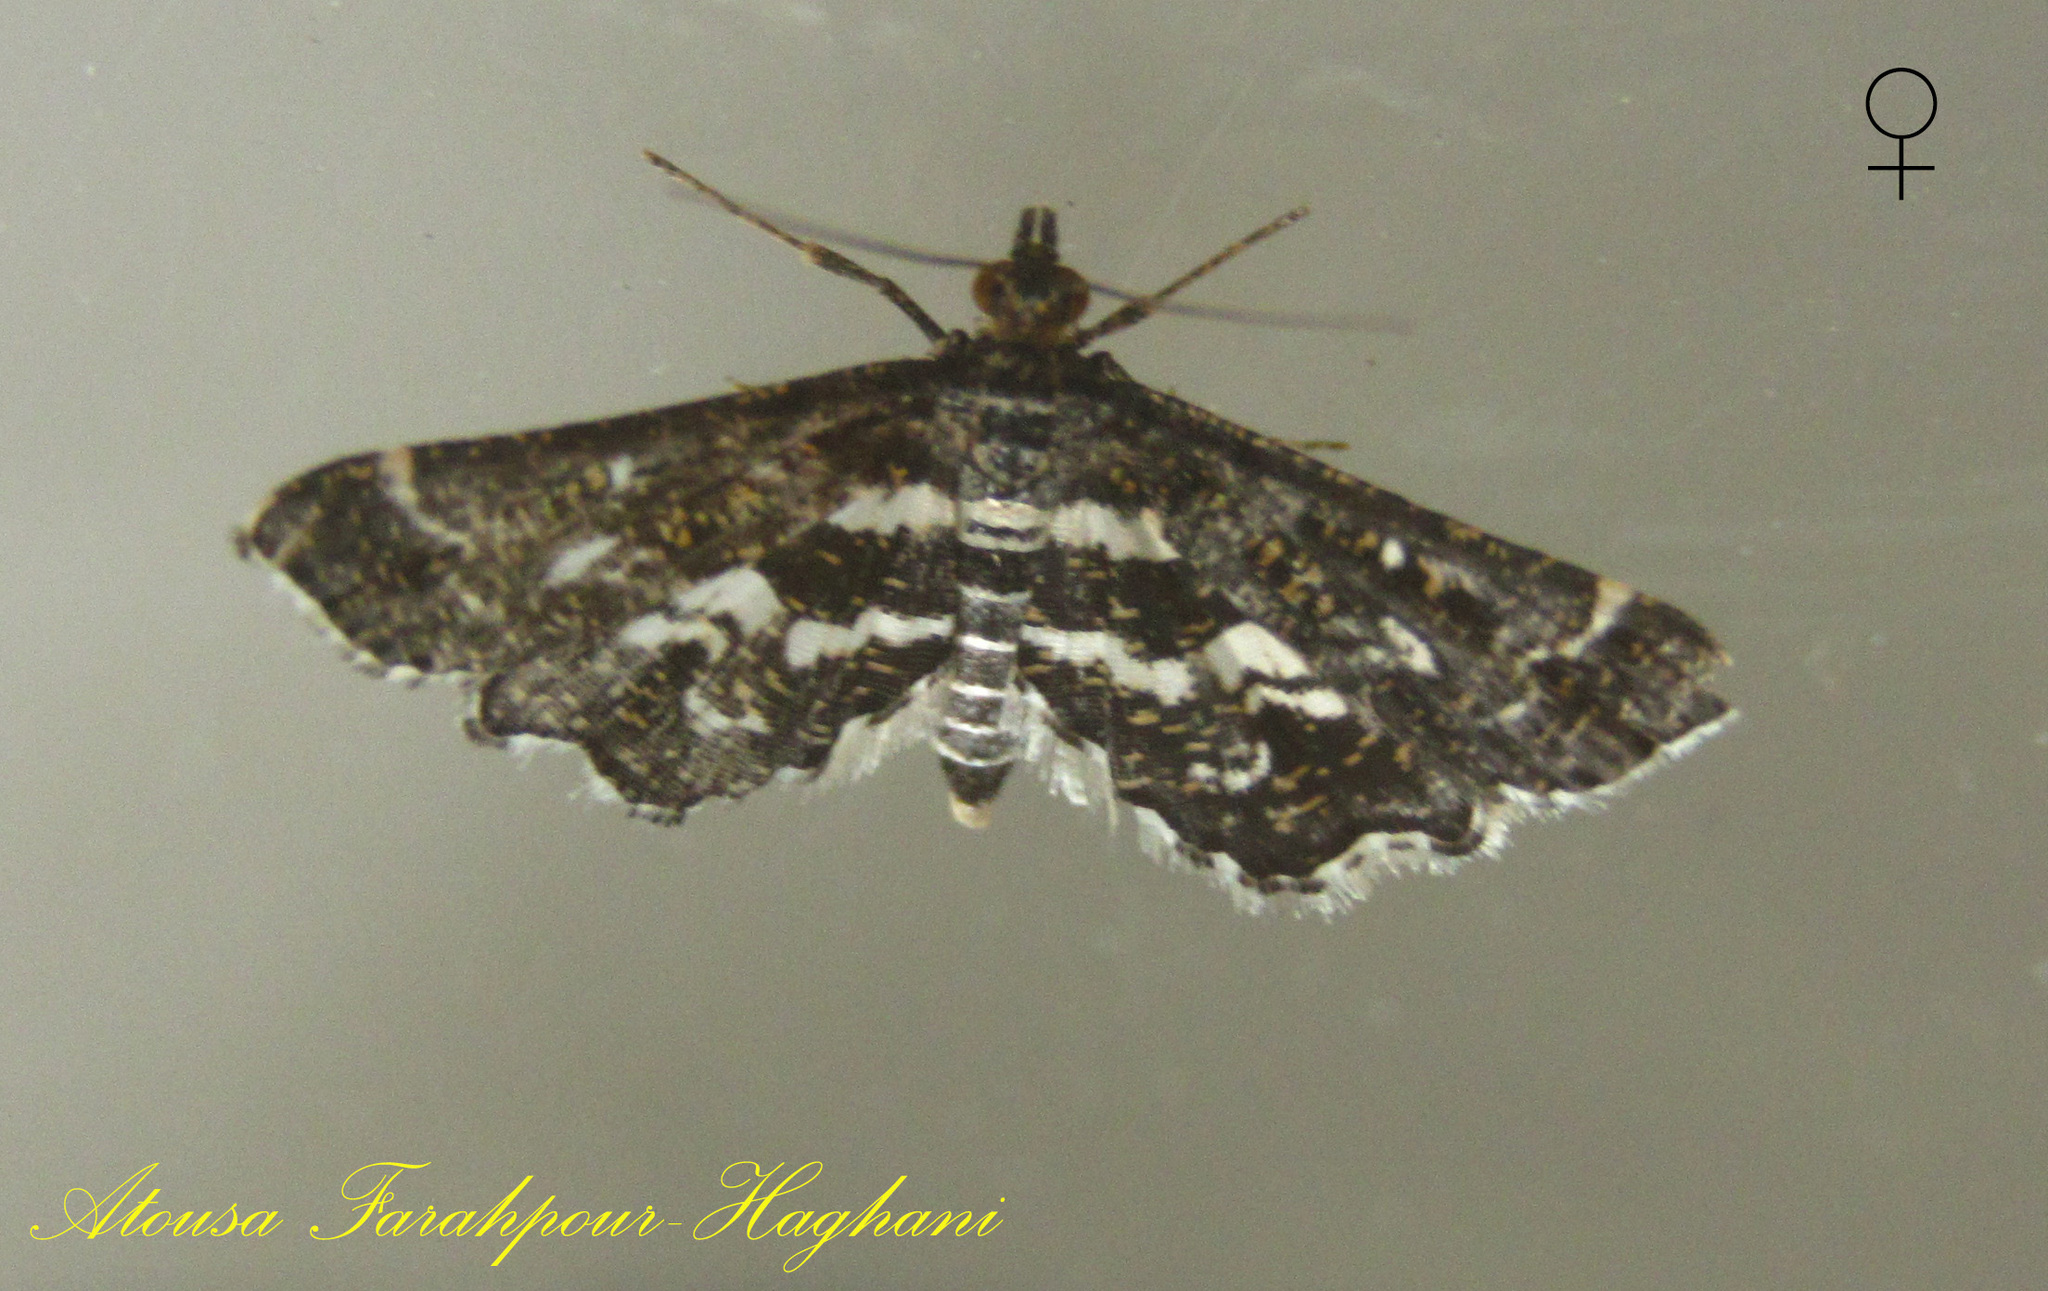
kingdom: Animalia
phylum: Arthropoda
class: Insecta
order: Lepidoptera
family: Crambidae
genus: Diasemiopsis
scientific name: Diasemiopsis ramburialis
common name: Vagrant china-mark
